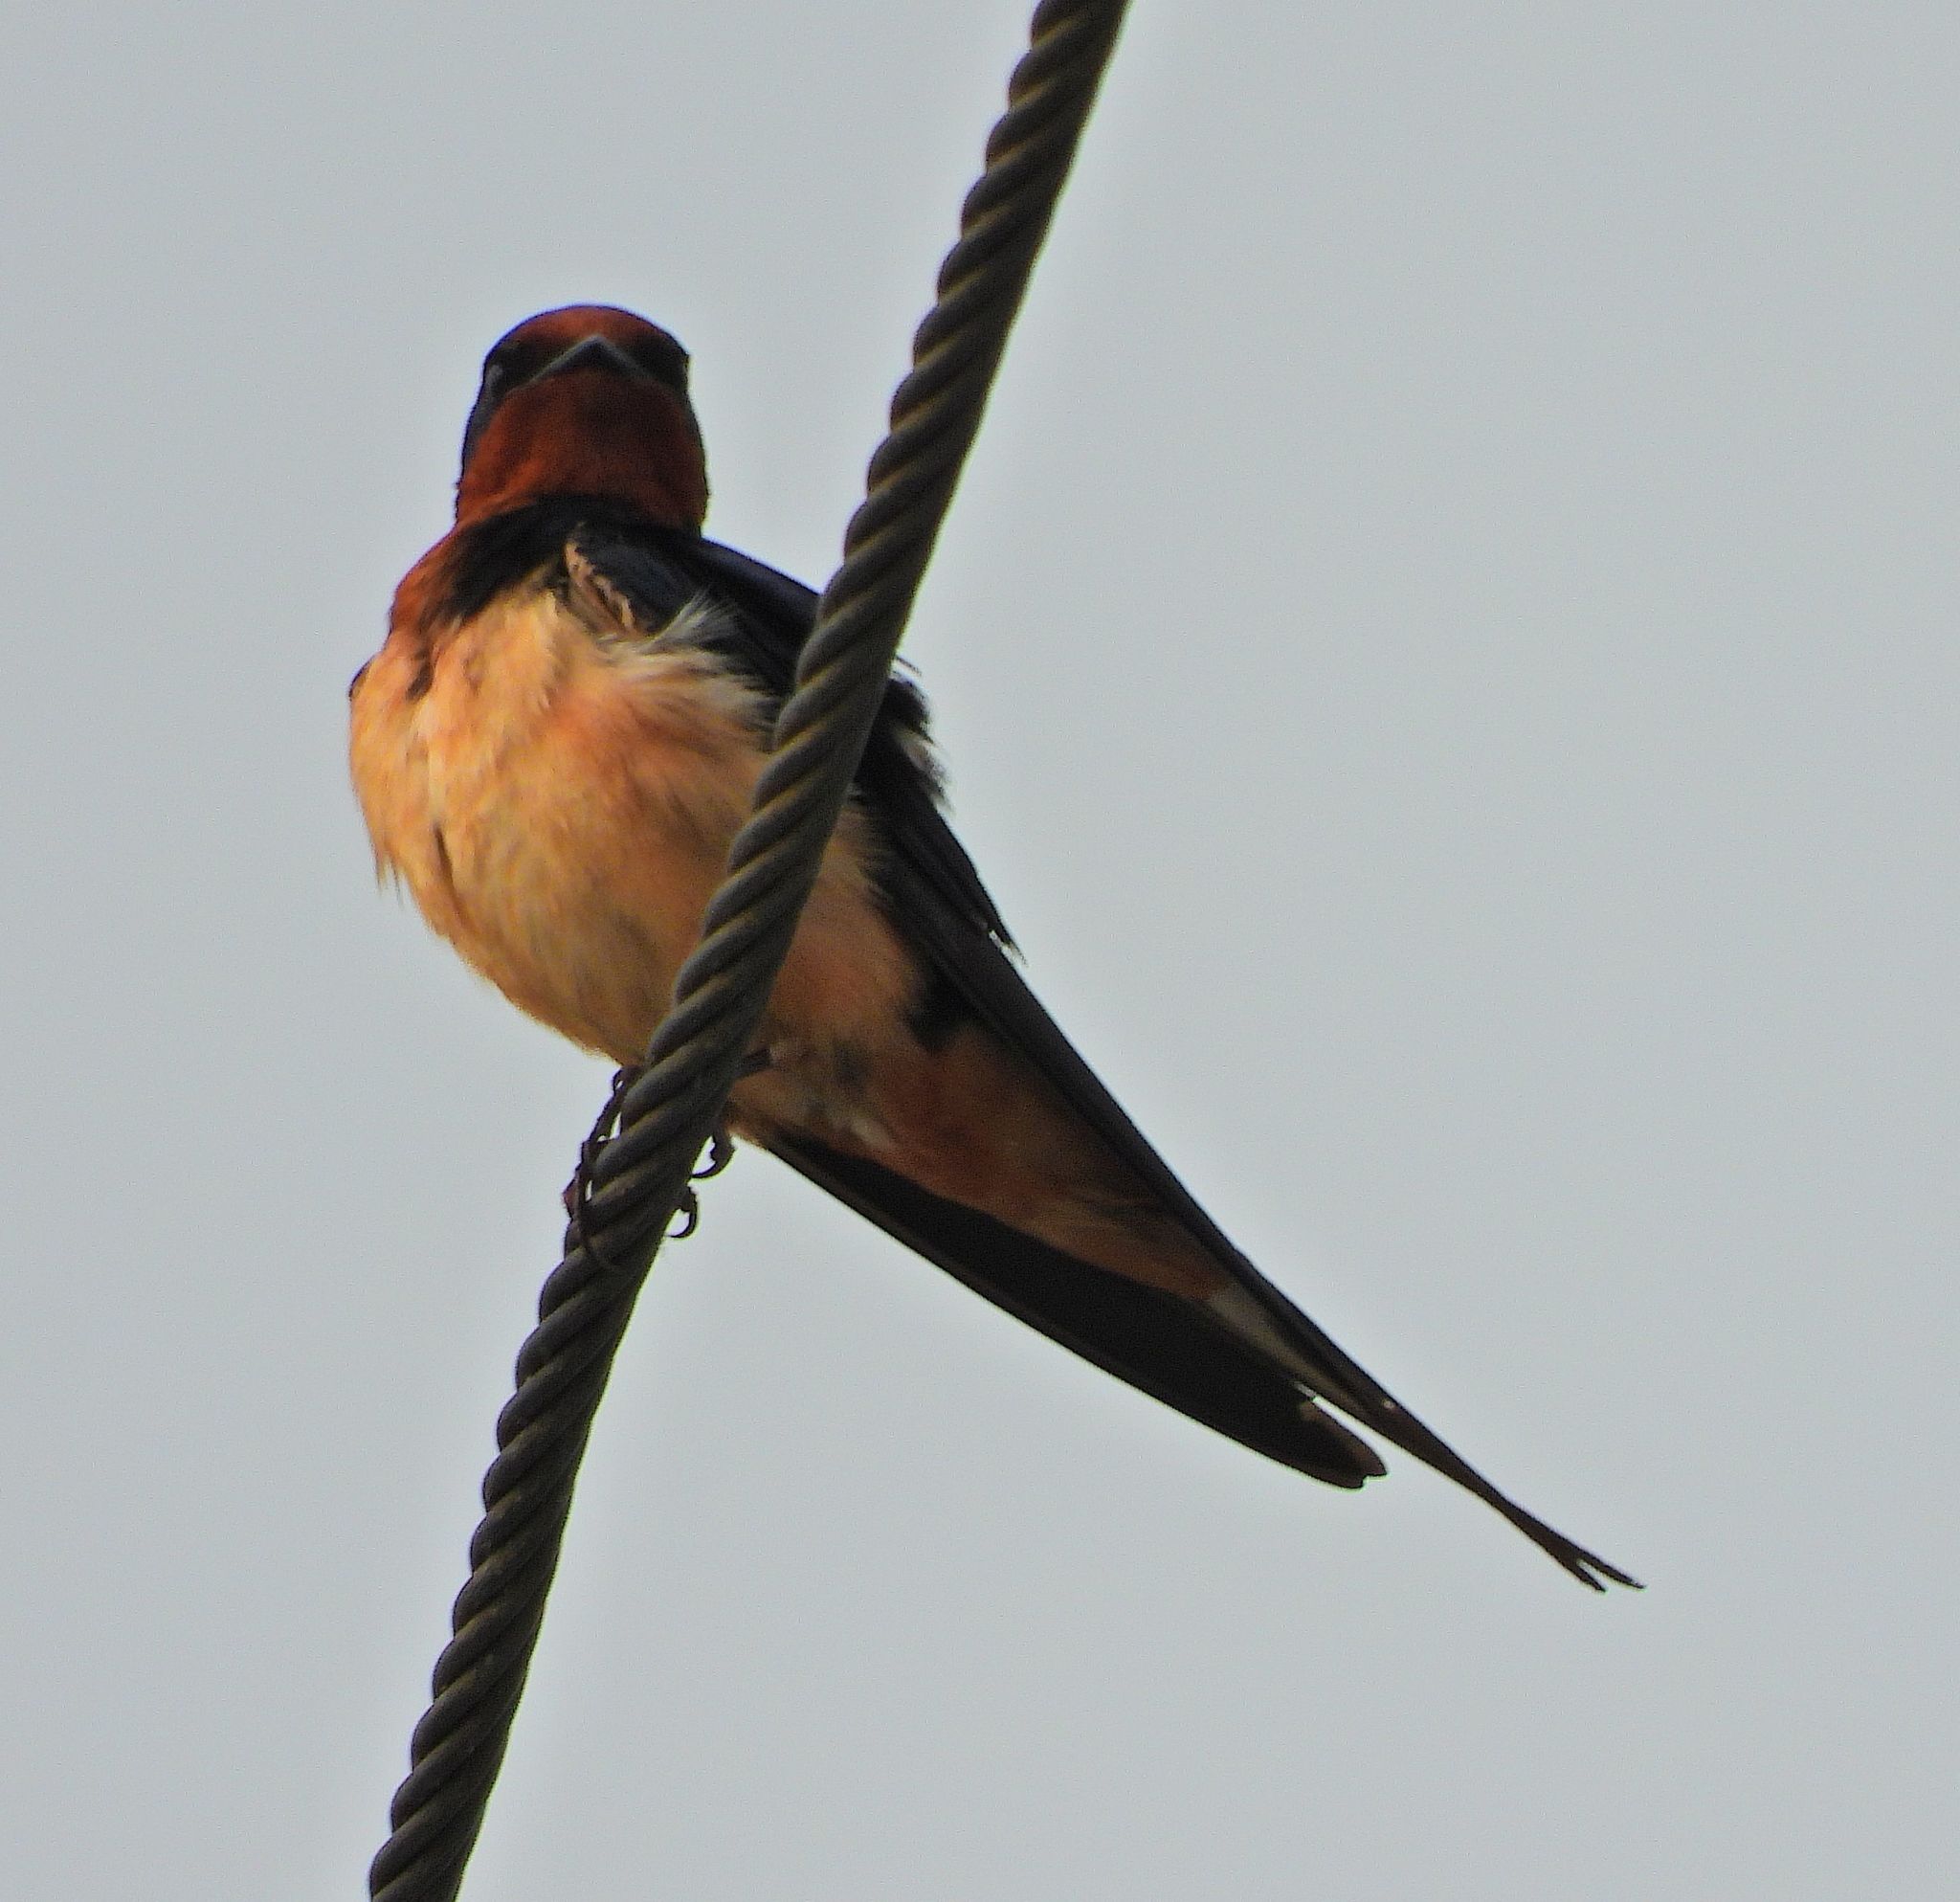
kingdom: Animalia
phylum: Chordata
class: Aves
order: Passeriformes
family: Hirundinidae
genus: Hirundo
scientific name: Hirundo rustica
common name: Barn swallow
